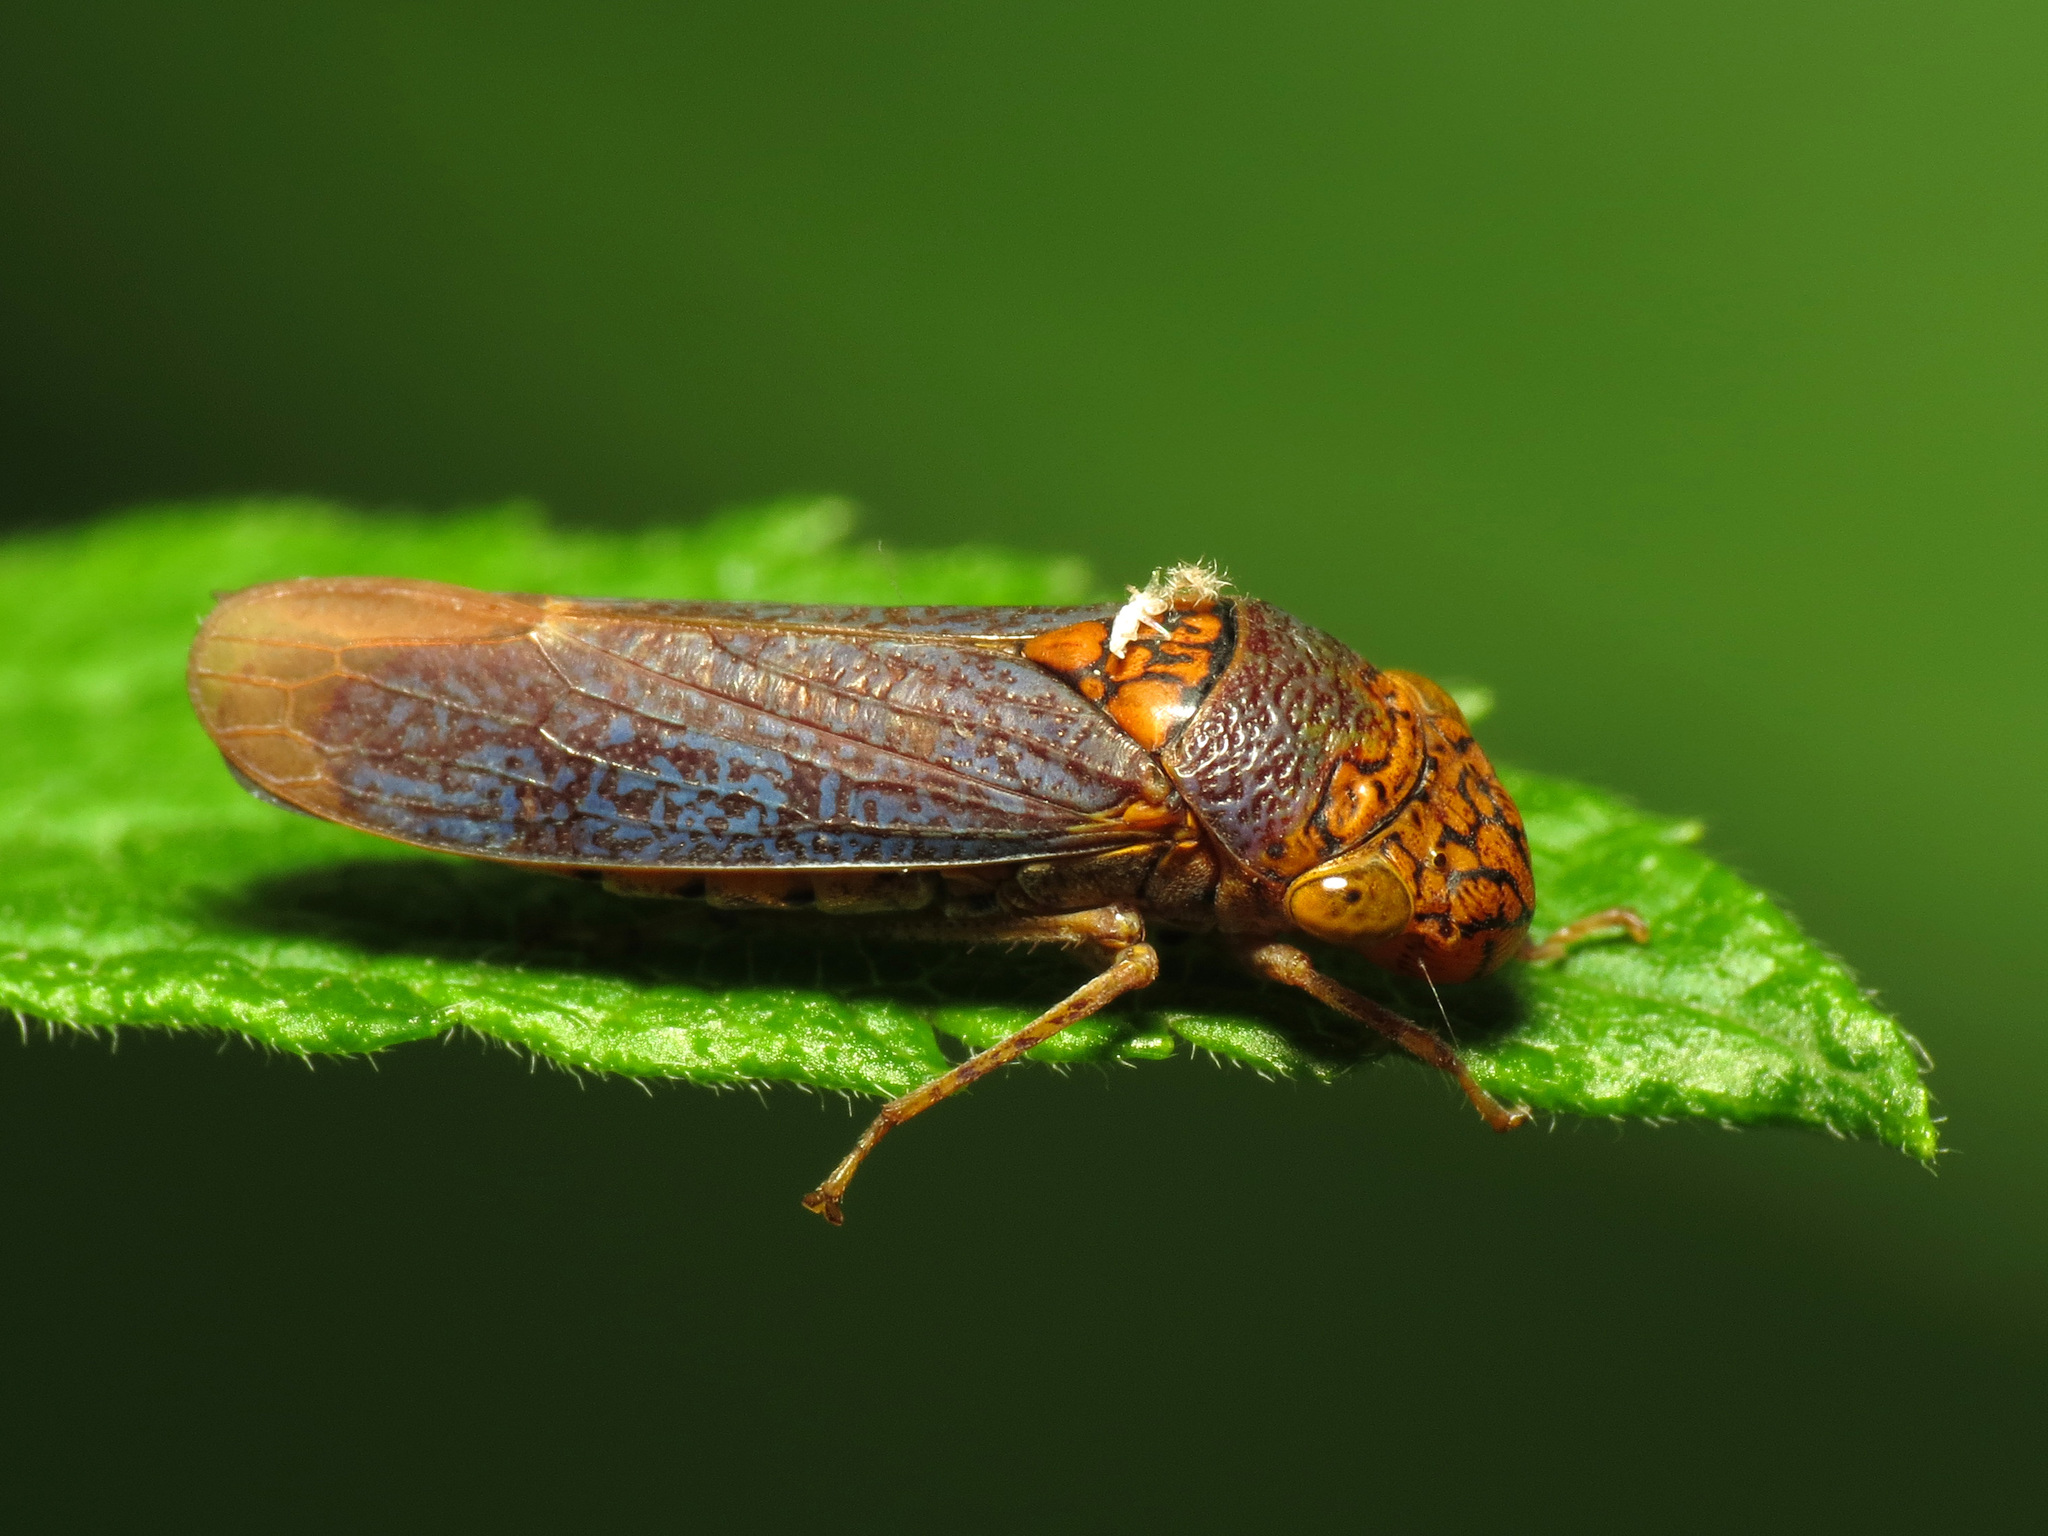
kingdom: Animalia
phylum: Arthropoda
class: Insecta
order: Hemiptera
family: Cicadellidae
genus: Oncometopia
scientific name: Oncometopia orbona
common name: Broad-headed sharpshooter
